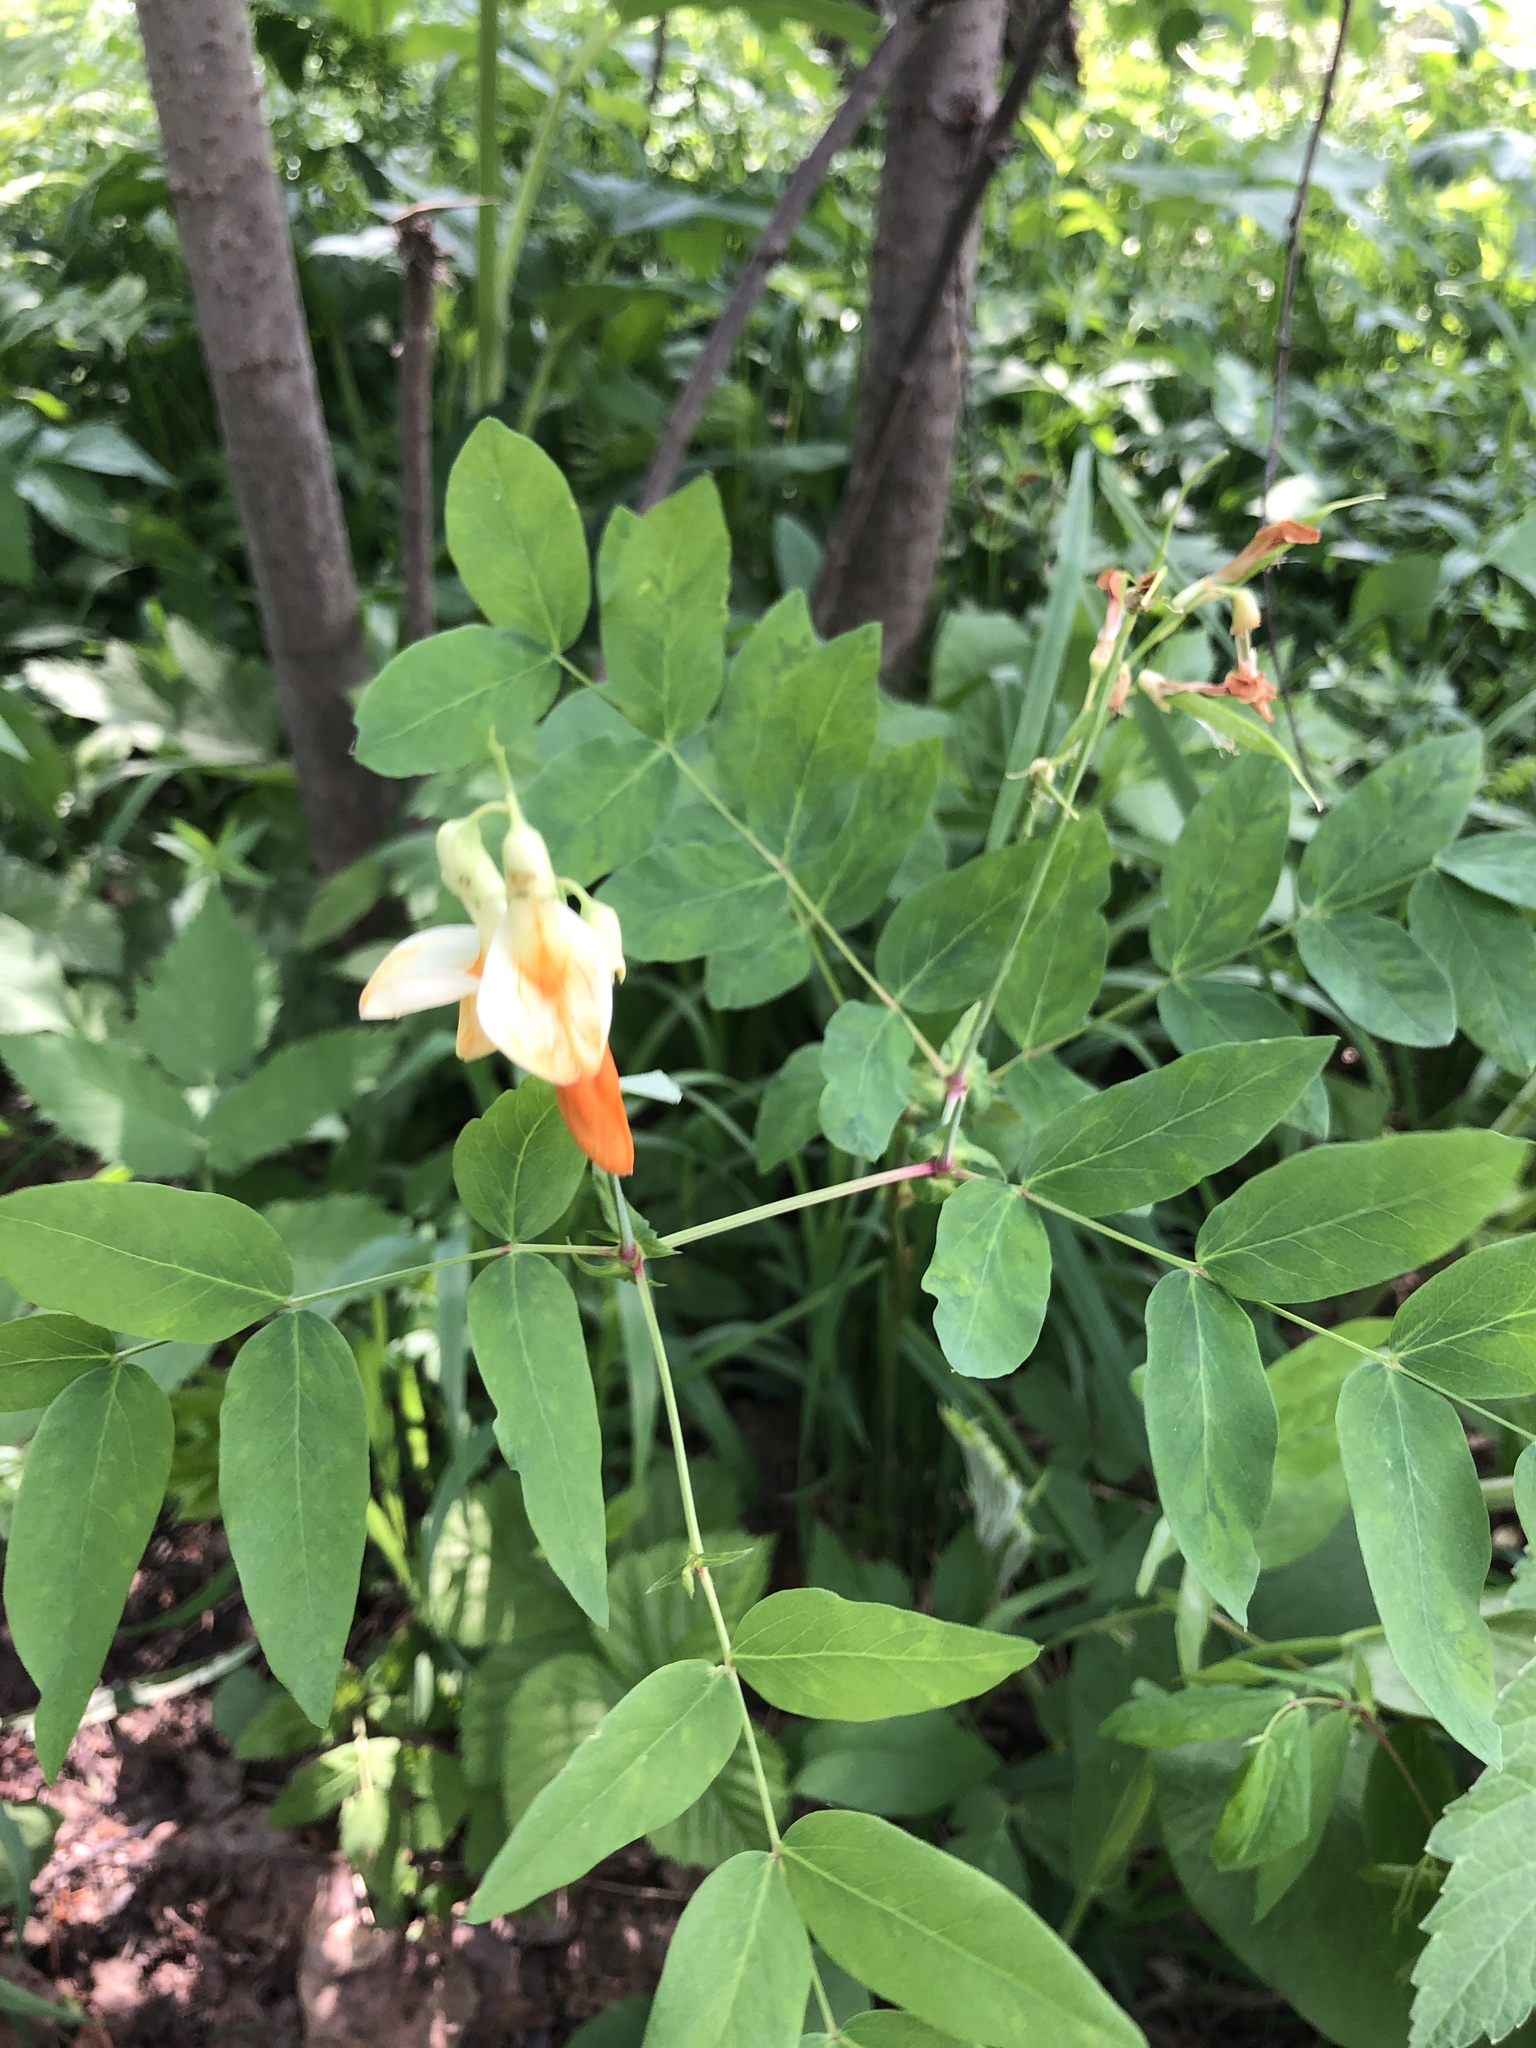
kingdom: Plantae
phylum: Tracheophyta
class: Magnoliopsida
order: Fabales
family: Fabaceae
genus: Lathyrus
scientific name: Lathyrus gmelinii
